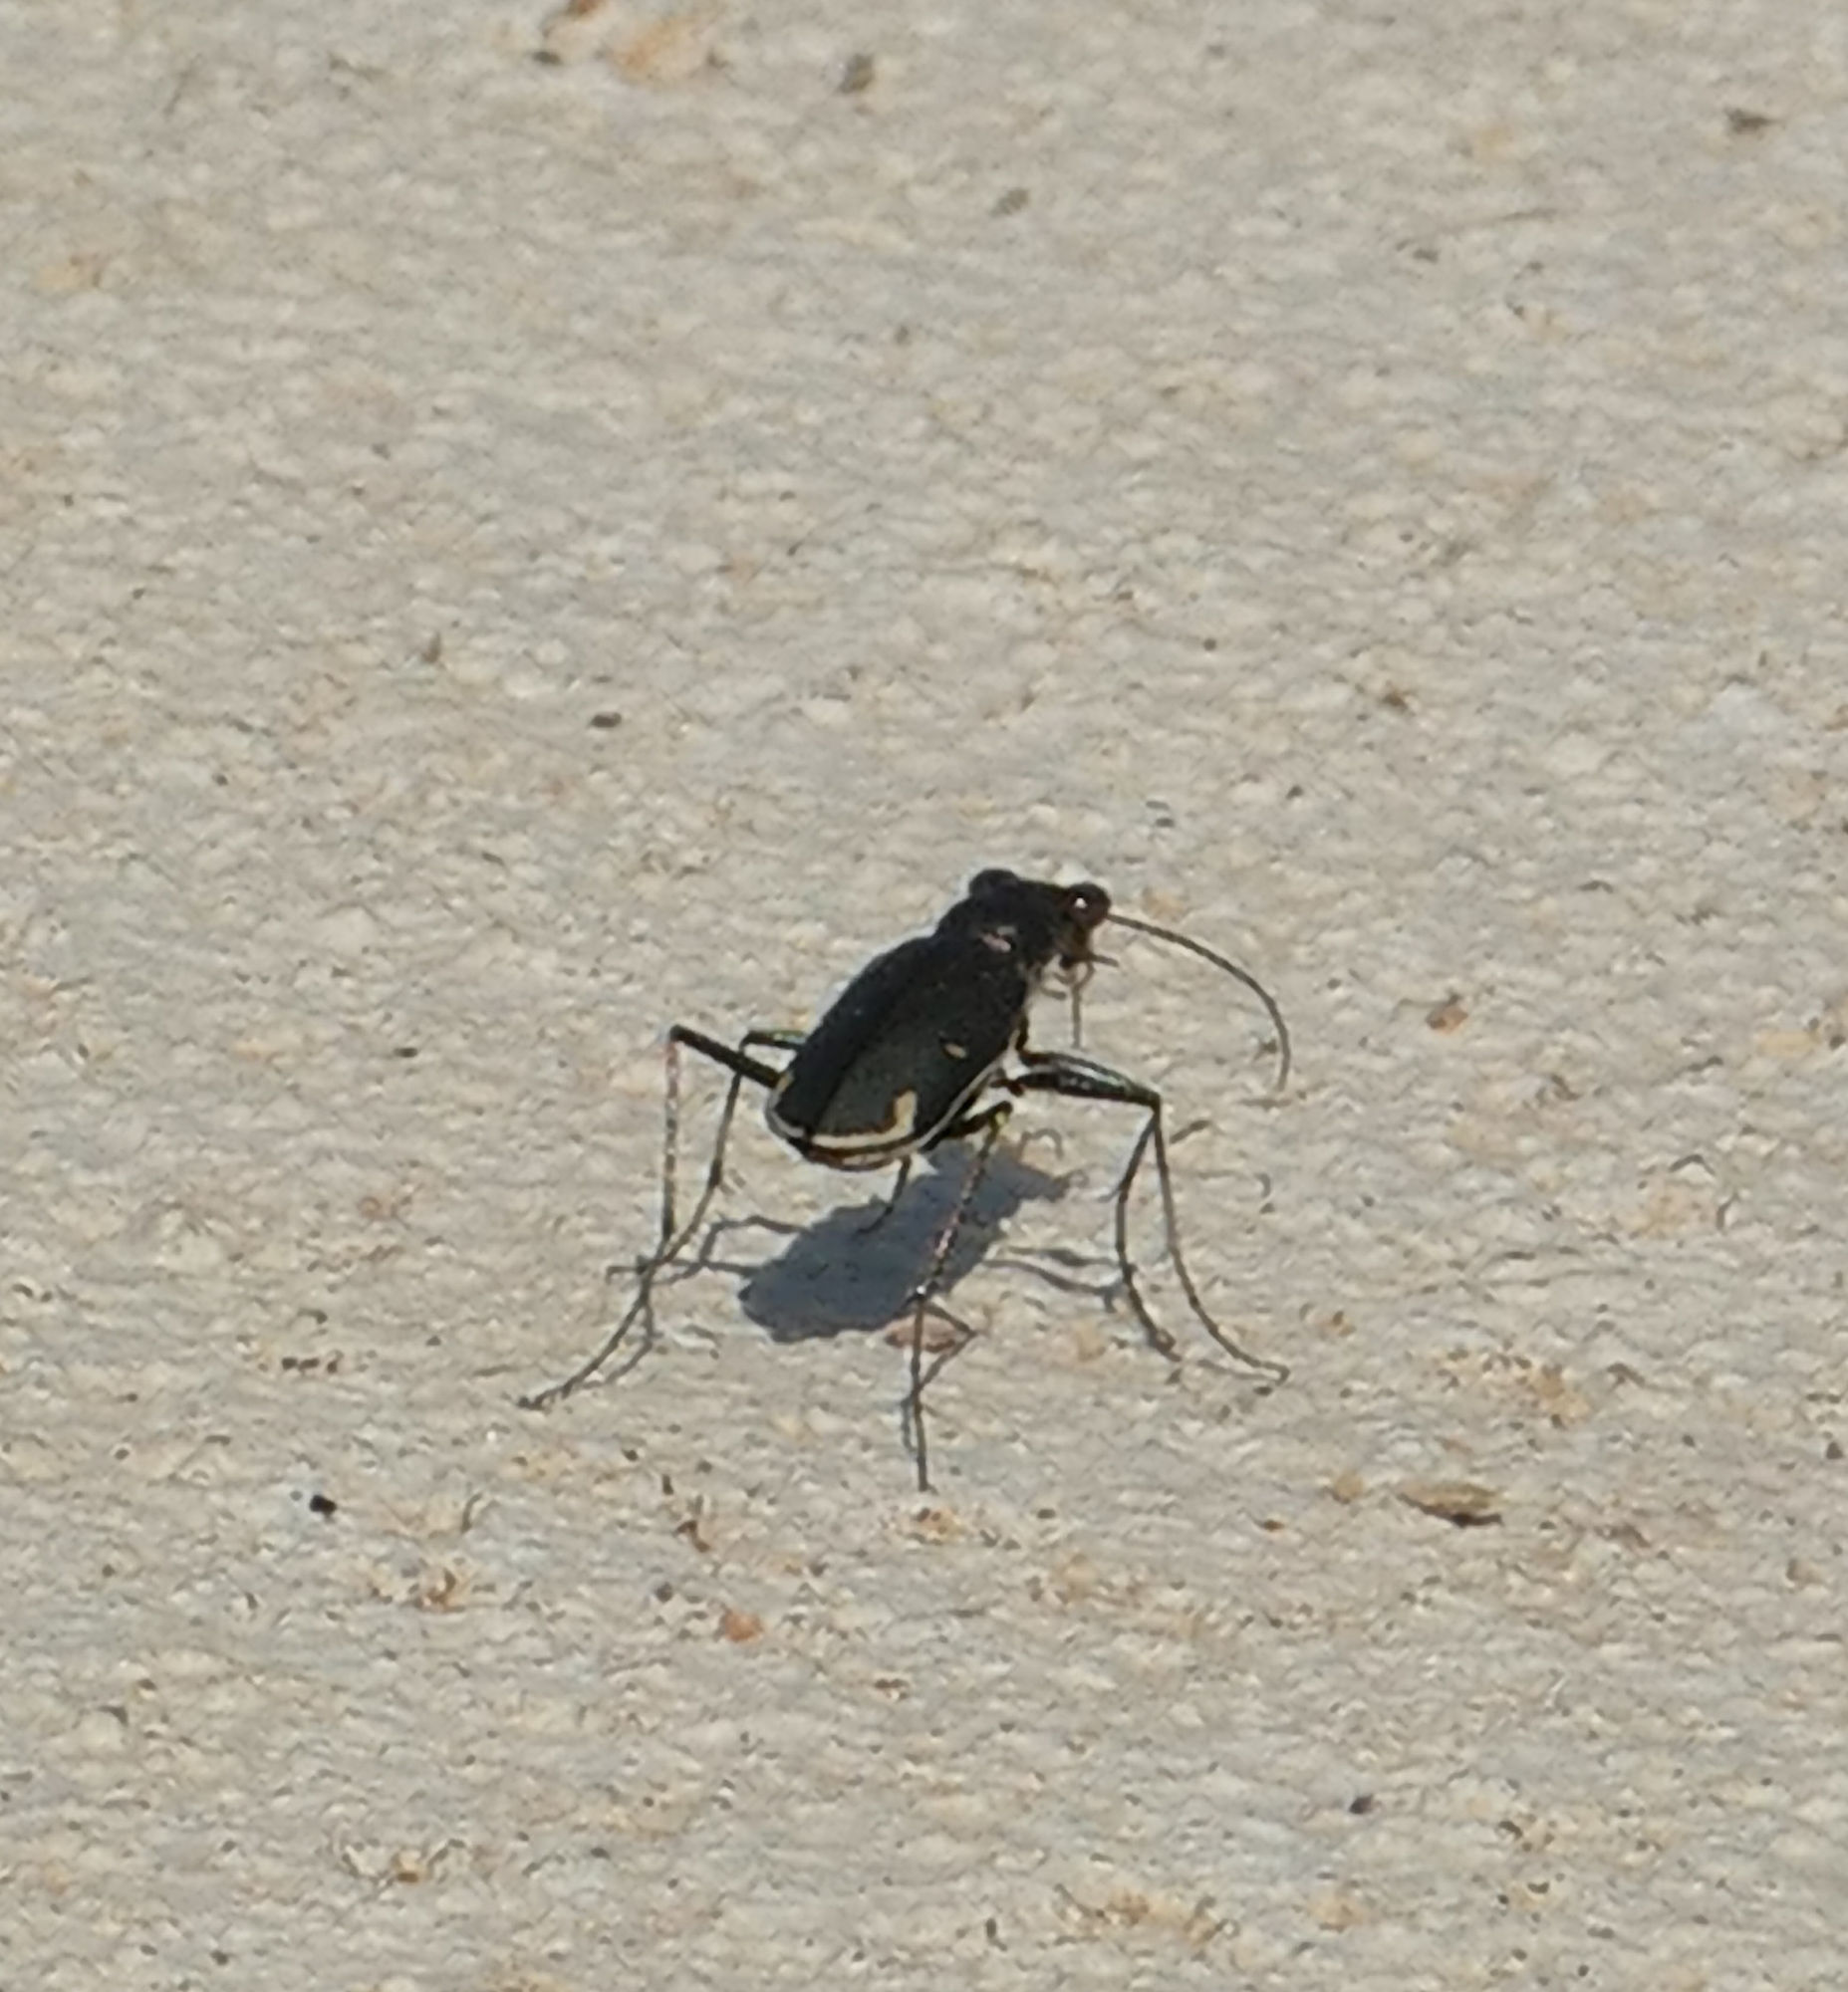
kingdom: Animalia
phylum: Arthropoda
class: Insecta
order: Coleoptera
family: Carabidae
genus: Eunota
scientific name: Eunota severa
